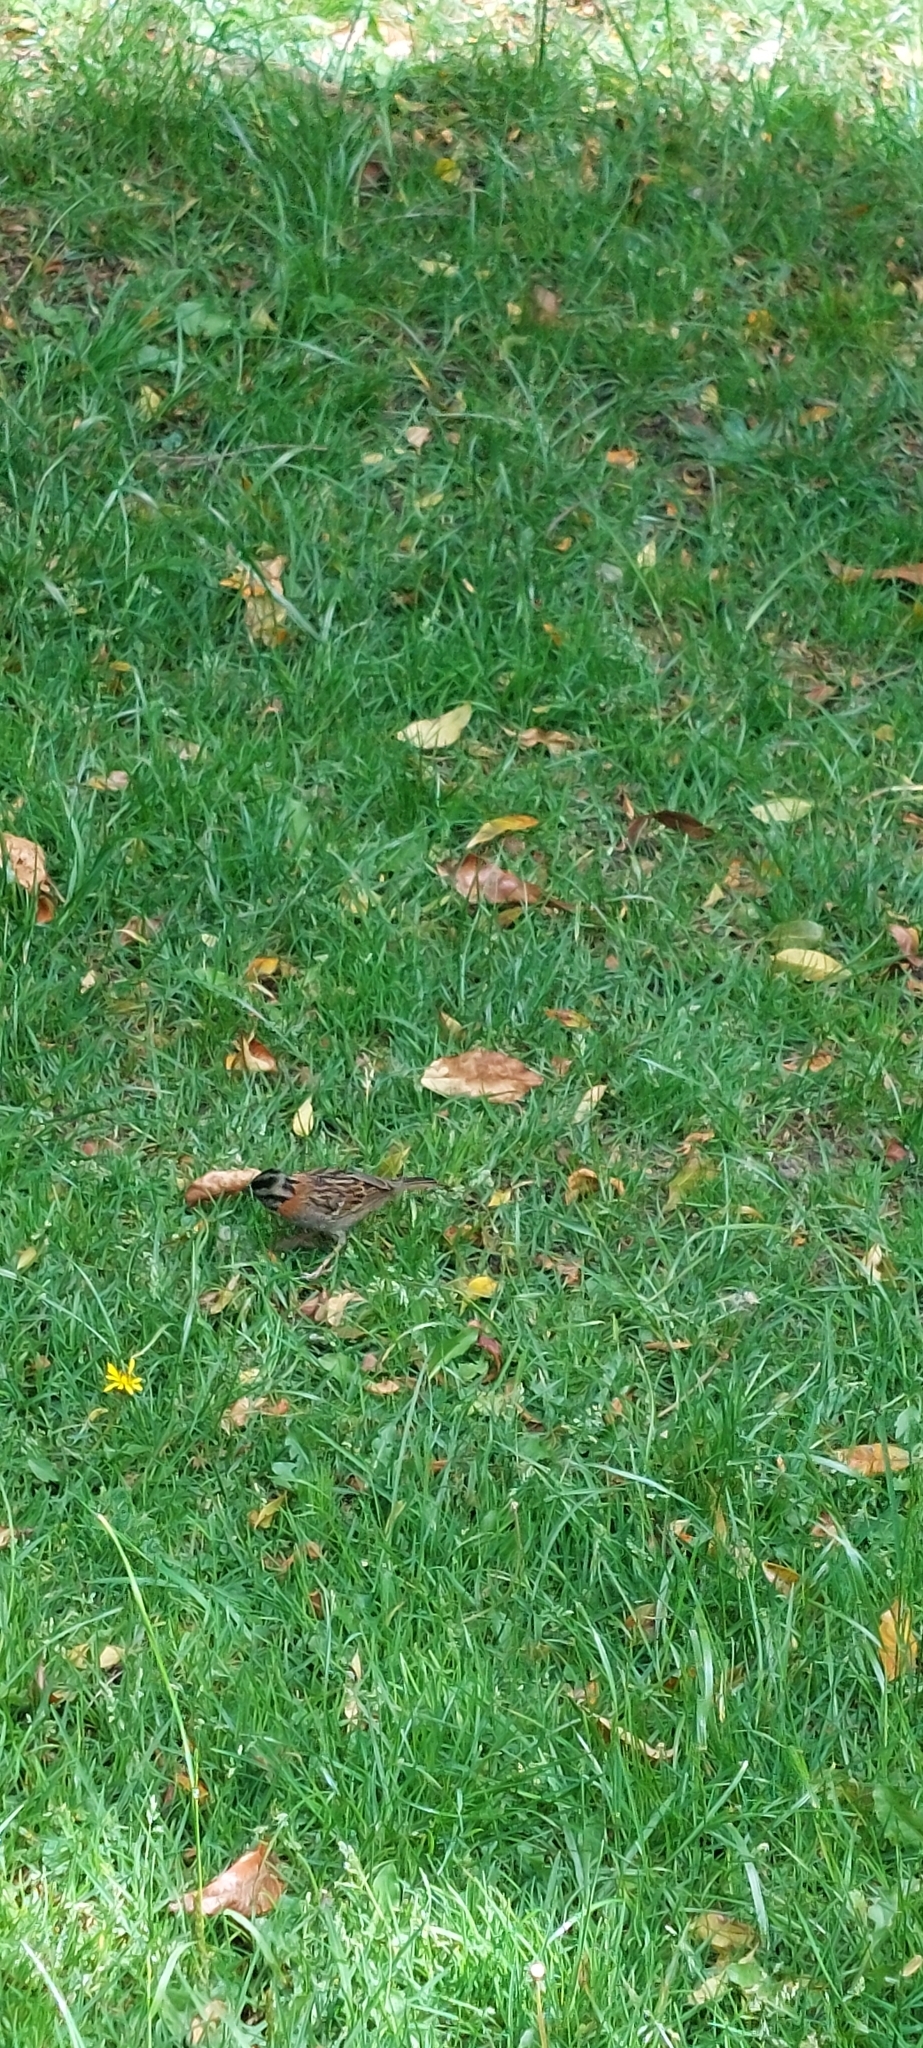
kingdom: Animalia
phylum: Chordata
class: Aves
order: Passeriformes
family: Passerellidae
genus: Zonotrichia
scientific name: Zonotrichia capensis
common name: Rufous-collared sparrow
